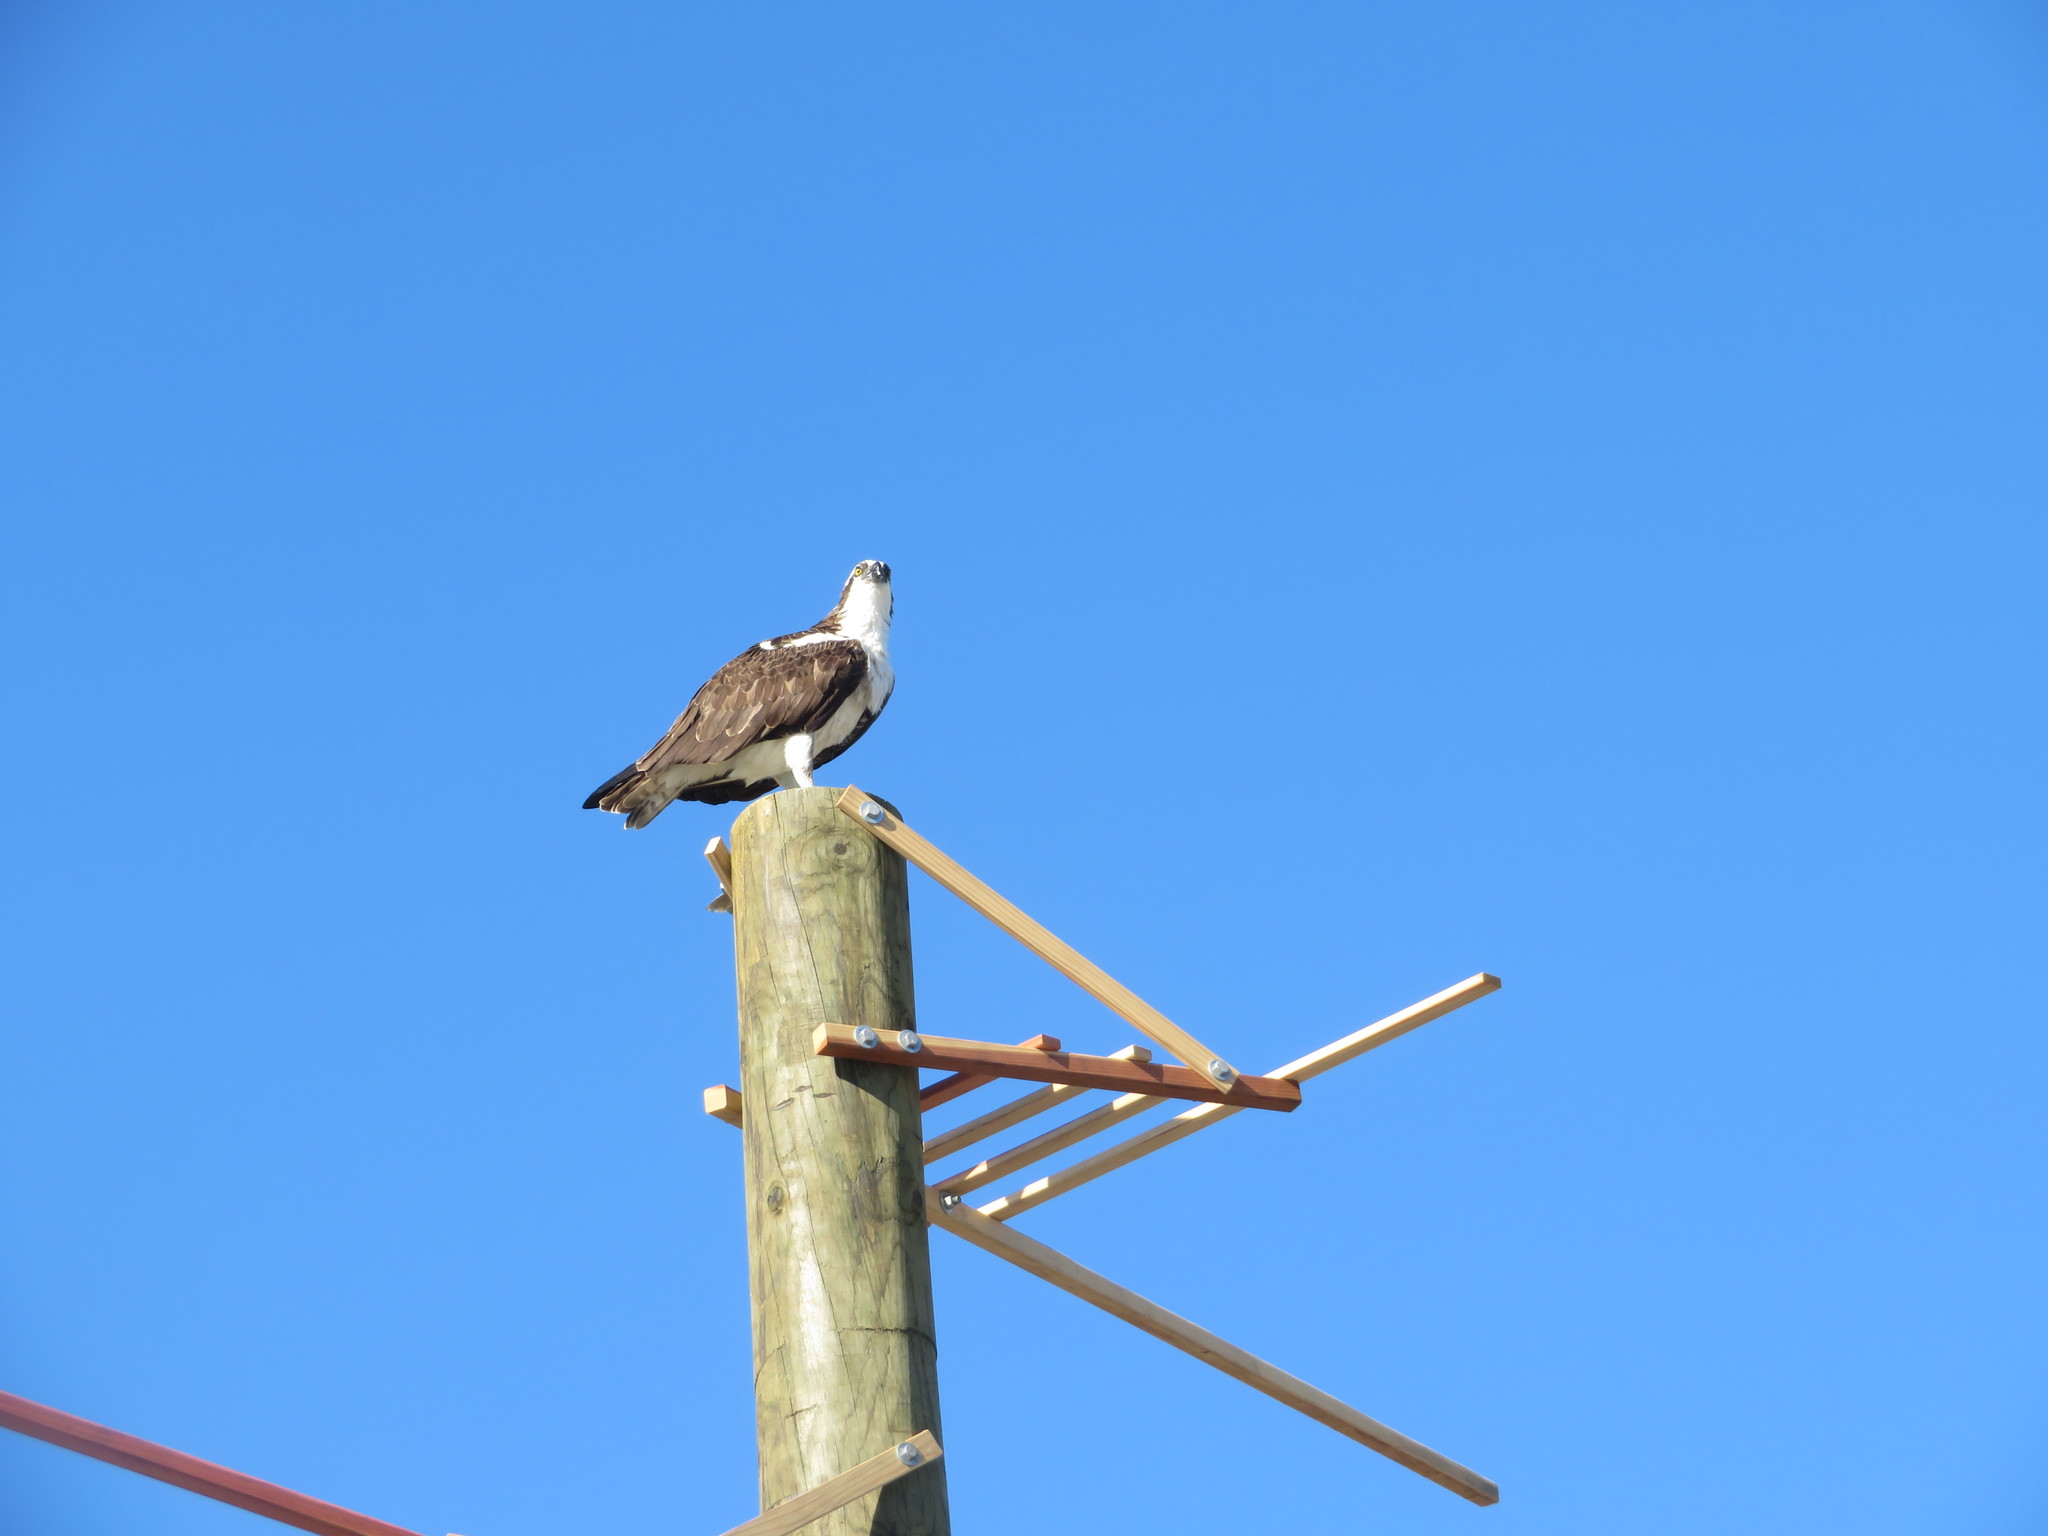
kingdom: Animalia
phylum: Chordata
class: Aves
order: Accipitriformes
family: Pandionidae
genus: Pandion
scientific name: Pandion haliaetus
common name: Osprey
